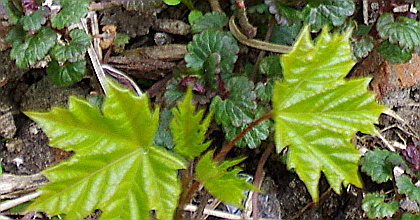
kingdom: Plantae
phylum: Tracheophyta
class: Magnoliopsida
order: Sapindales
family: Sapindaceae
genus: Acer
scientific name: Acer platanoides
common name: Norway maple
